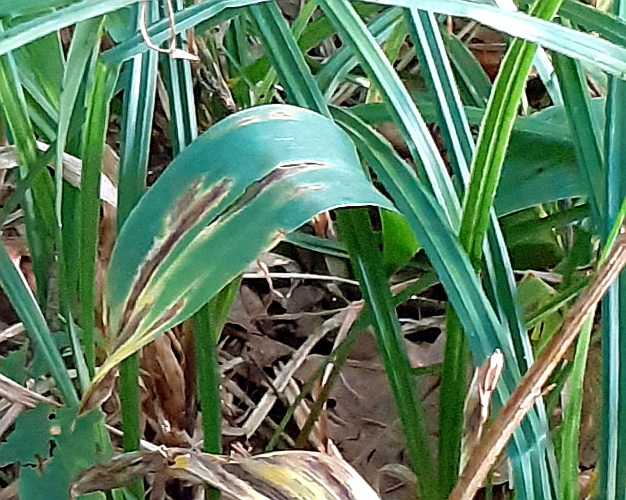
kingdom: Plantae
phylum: Tracheophyta
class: Liliopsida
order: Asparagales
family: Asparagaceae
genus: Convallaria
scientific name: Convallaria majalis
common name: Lily-of-the-valley
